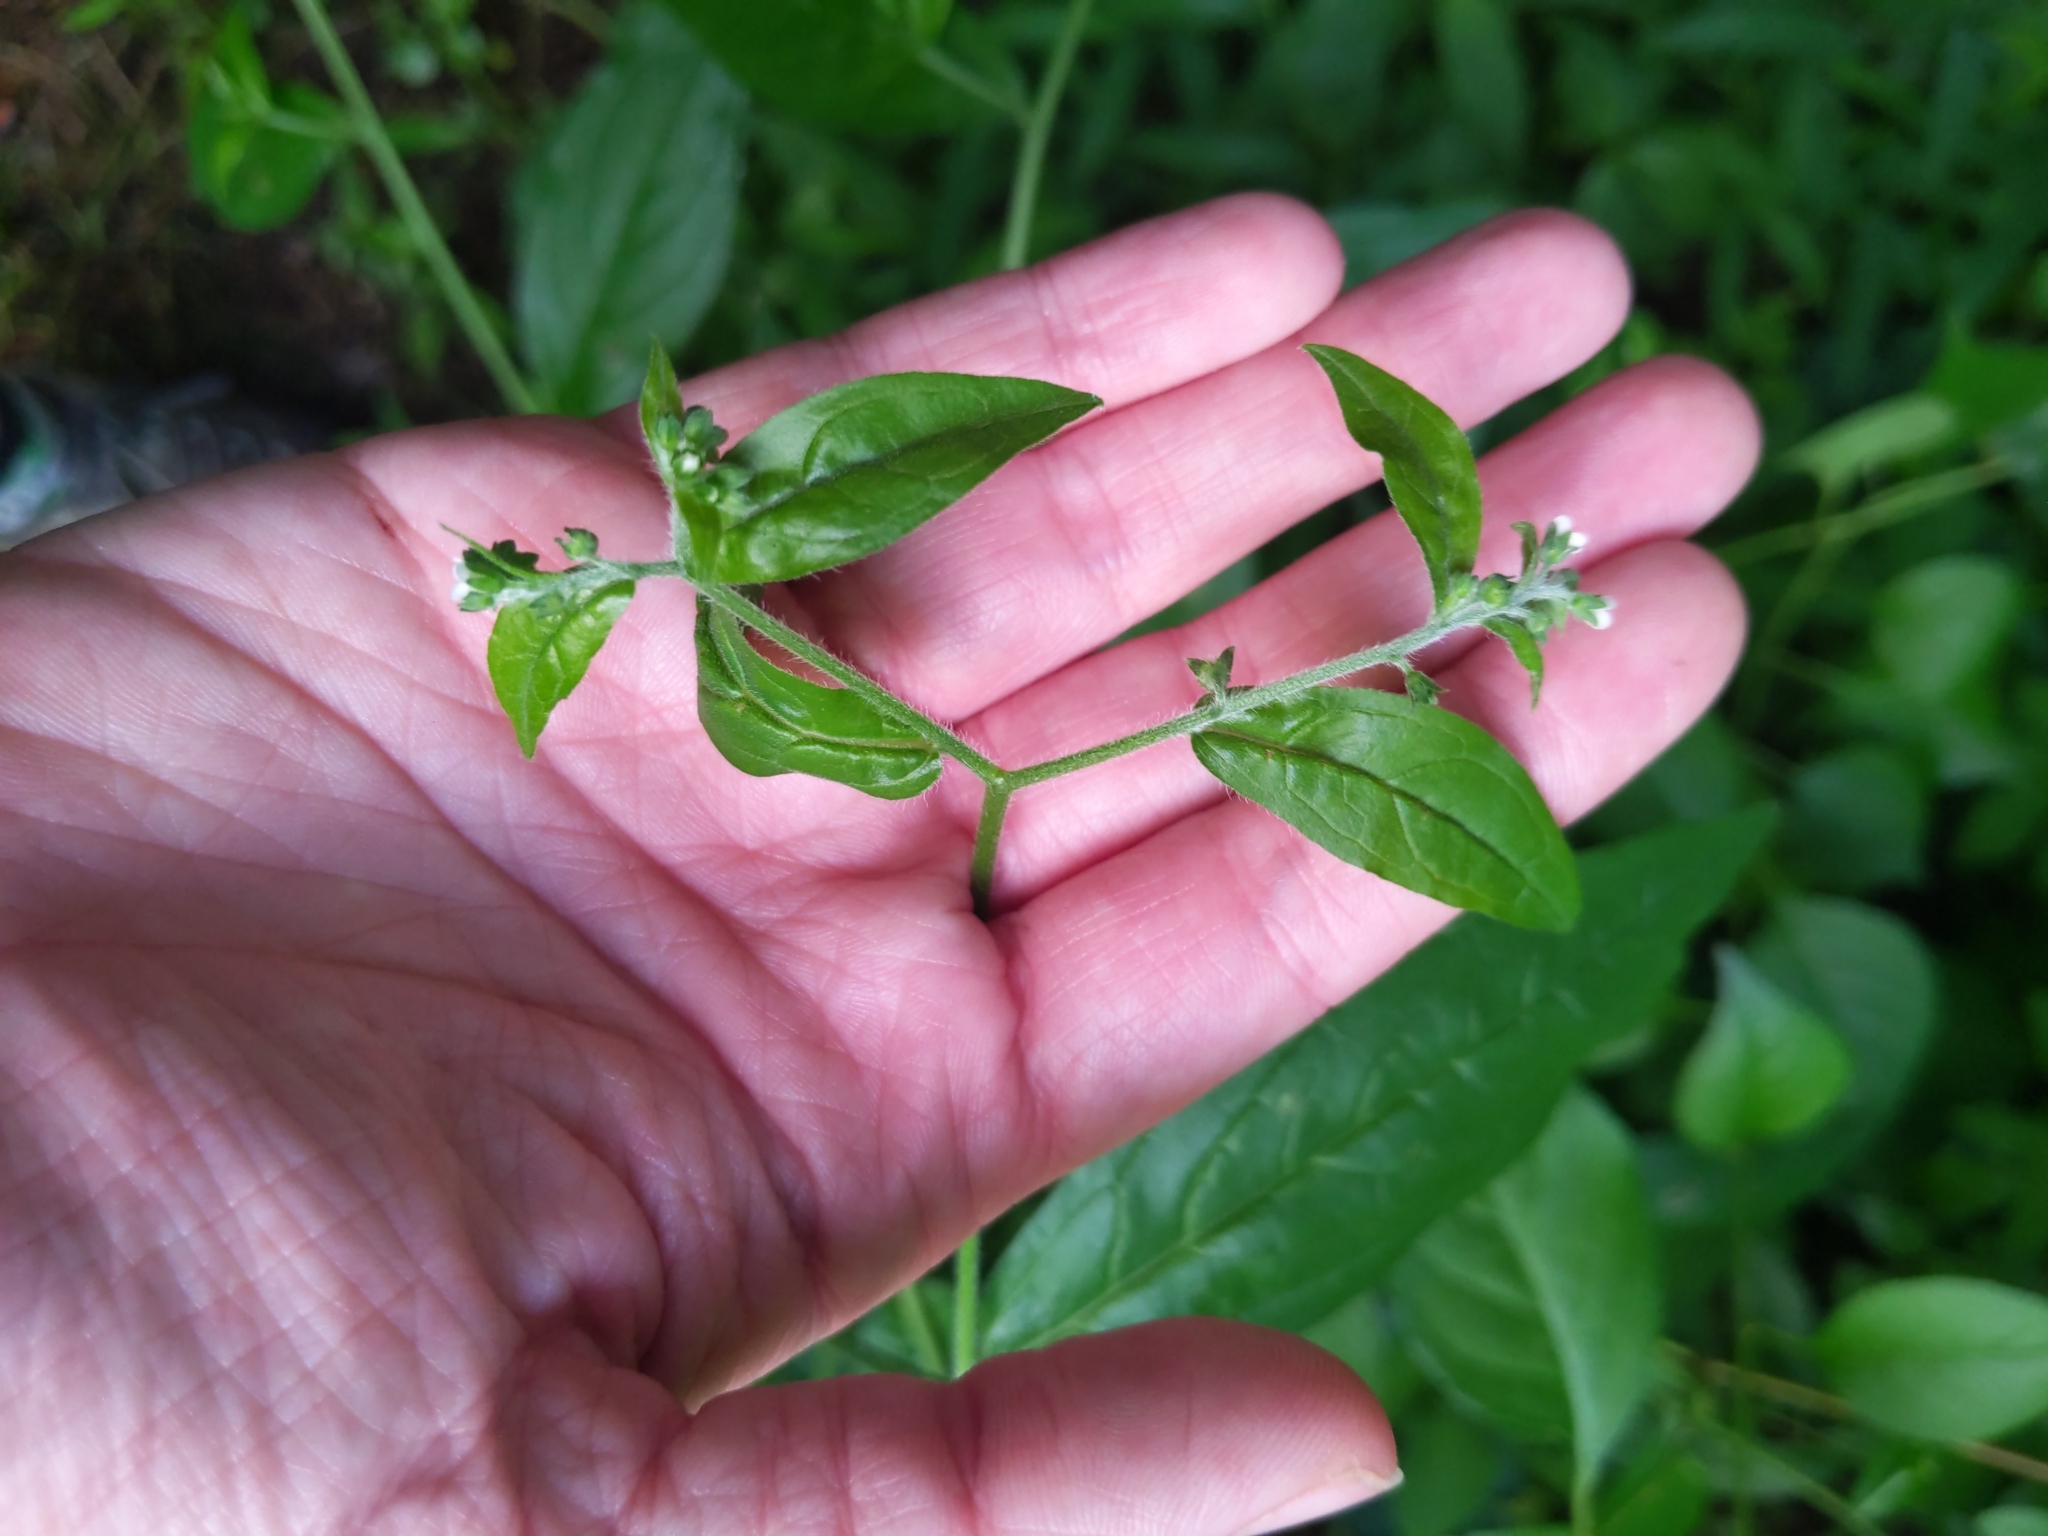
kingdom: Plantae
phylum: Tracheophyta
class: Magnoliopsida
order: Boraginales
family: Boraginaceae
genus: Hackelia
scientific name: Hackelia virginiana
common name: Beggar's-lice
